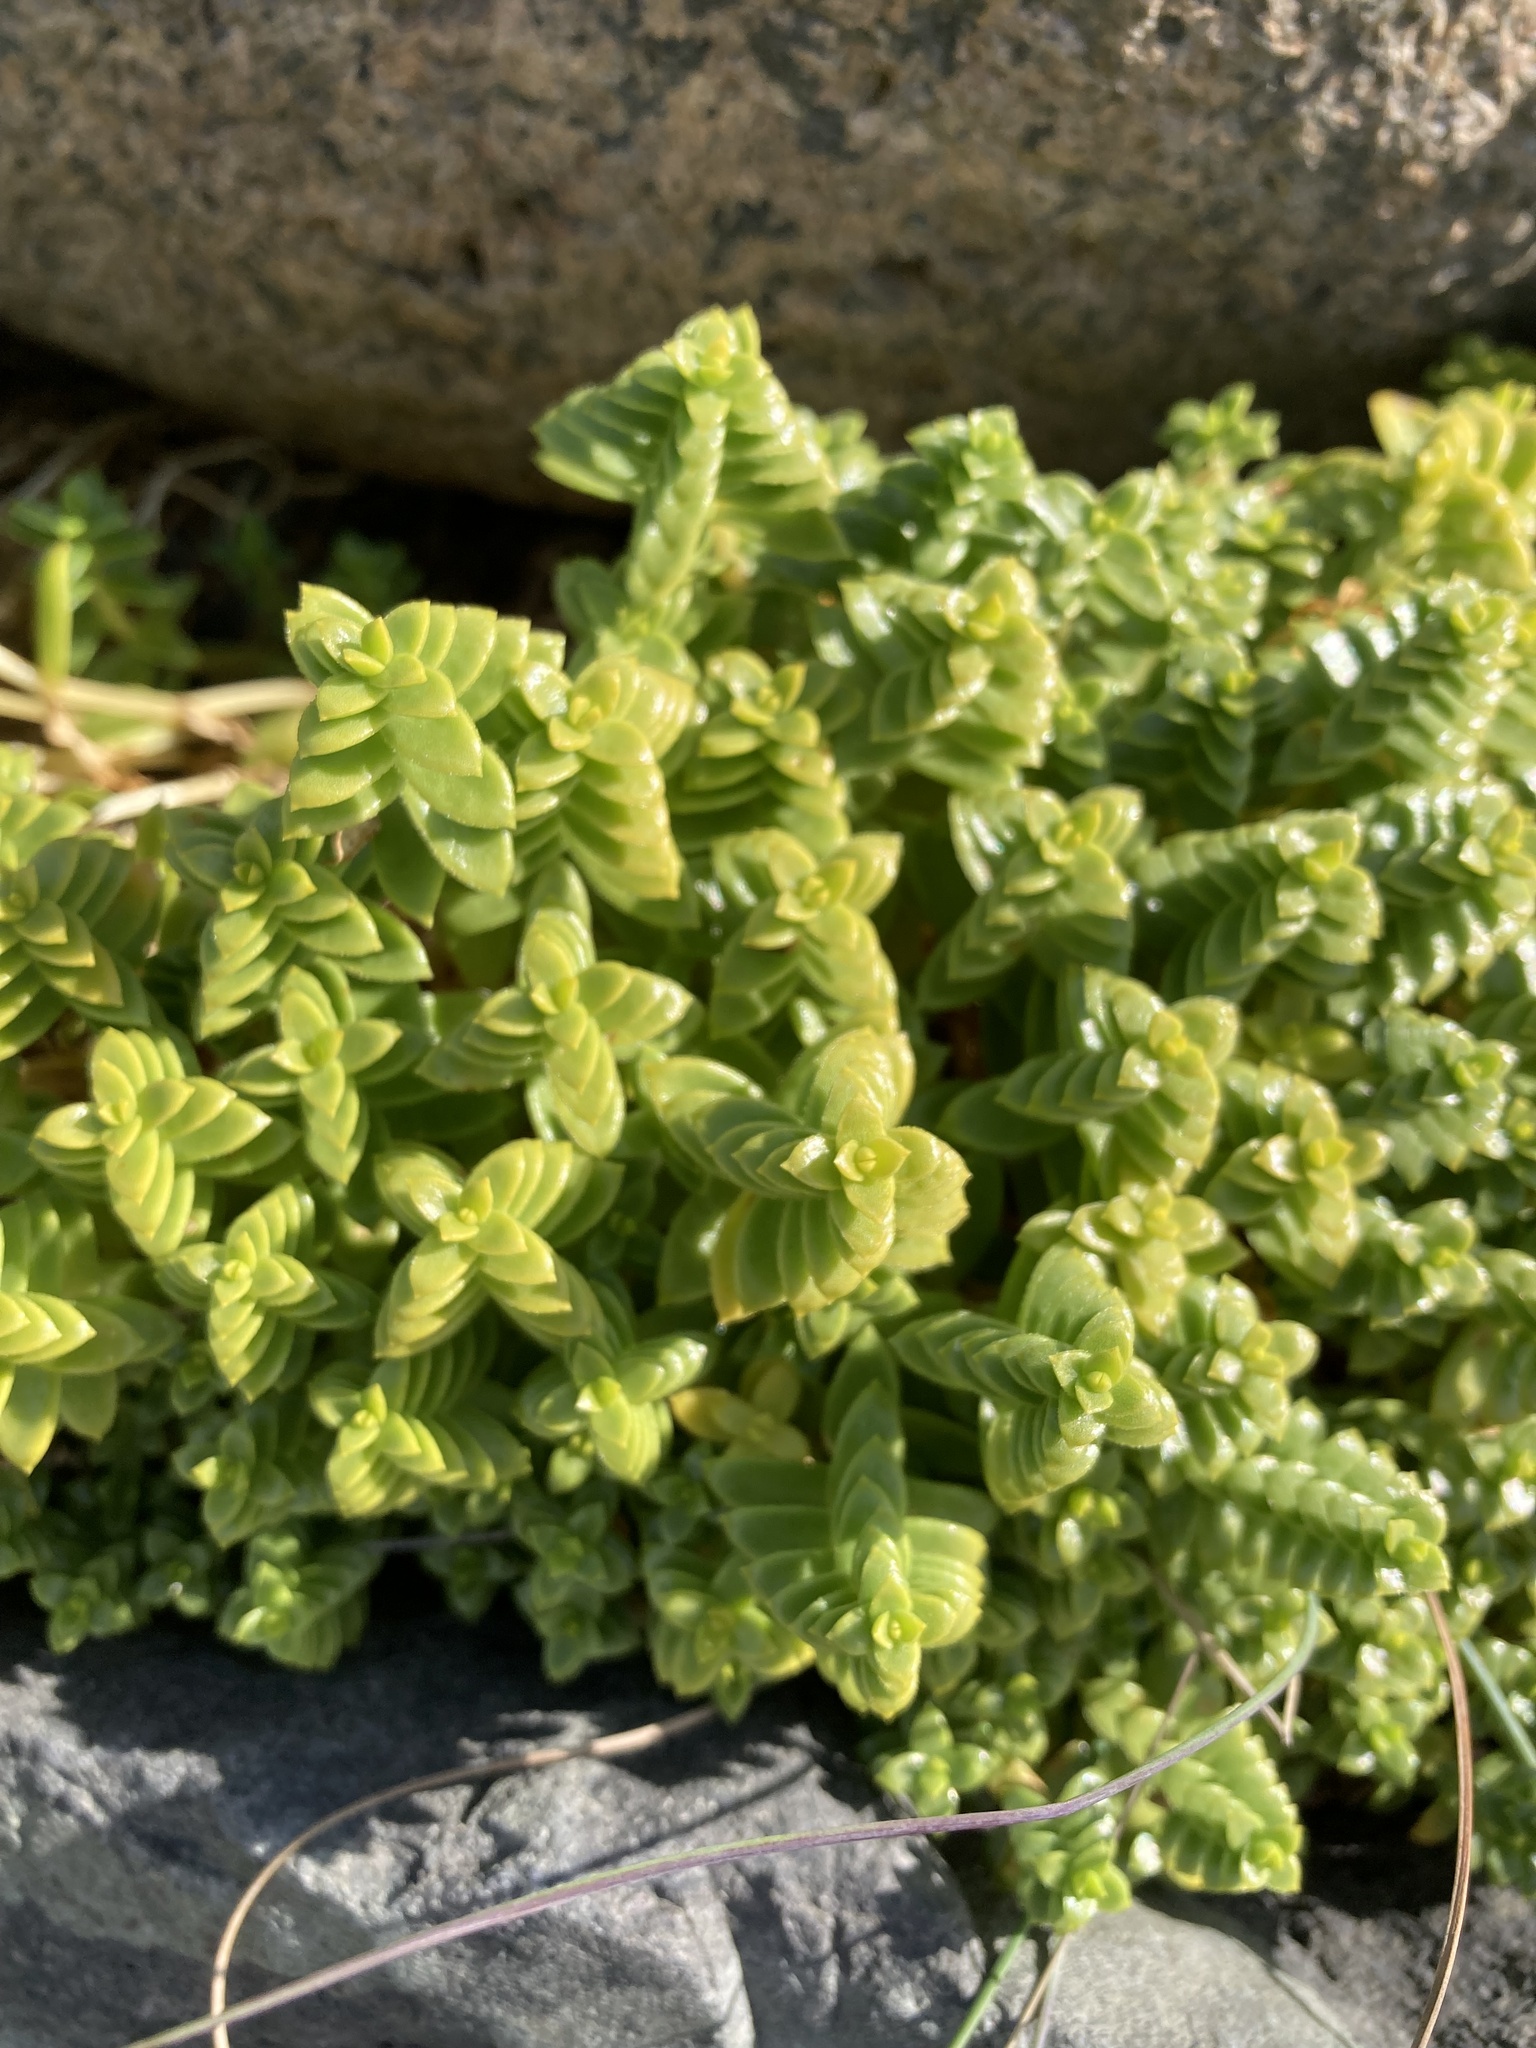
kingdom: Plantae
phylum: Tracheophyta
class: Magnoliopsida
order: Caryophyllales
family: Caryophyllaceae
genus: Honckenya
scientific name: Honckenya peploides
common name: Sea sandwort
